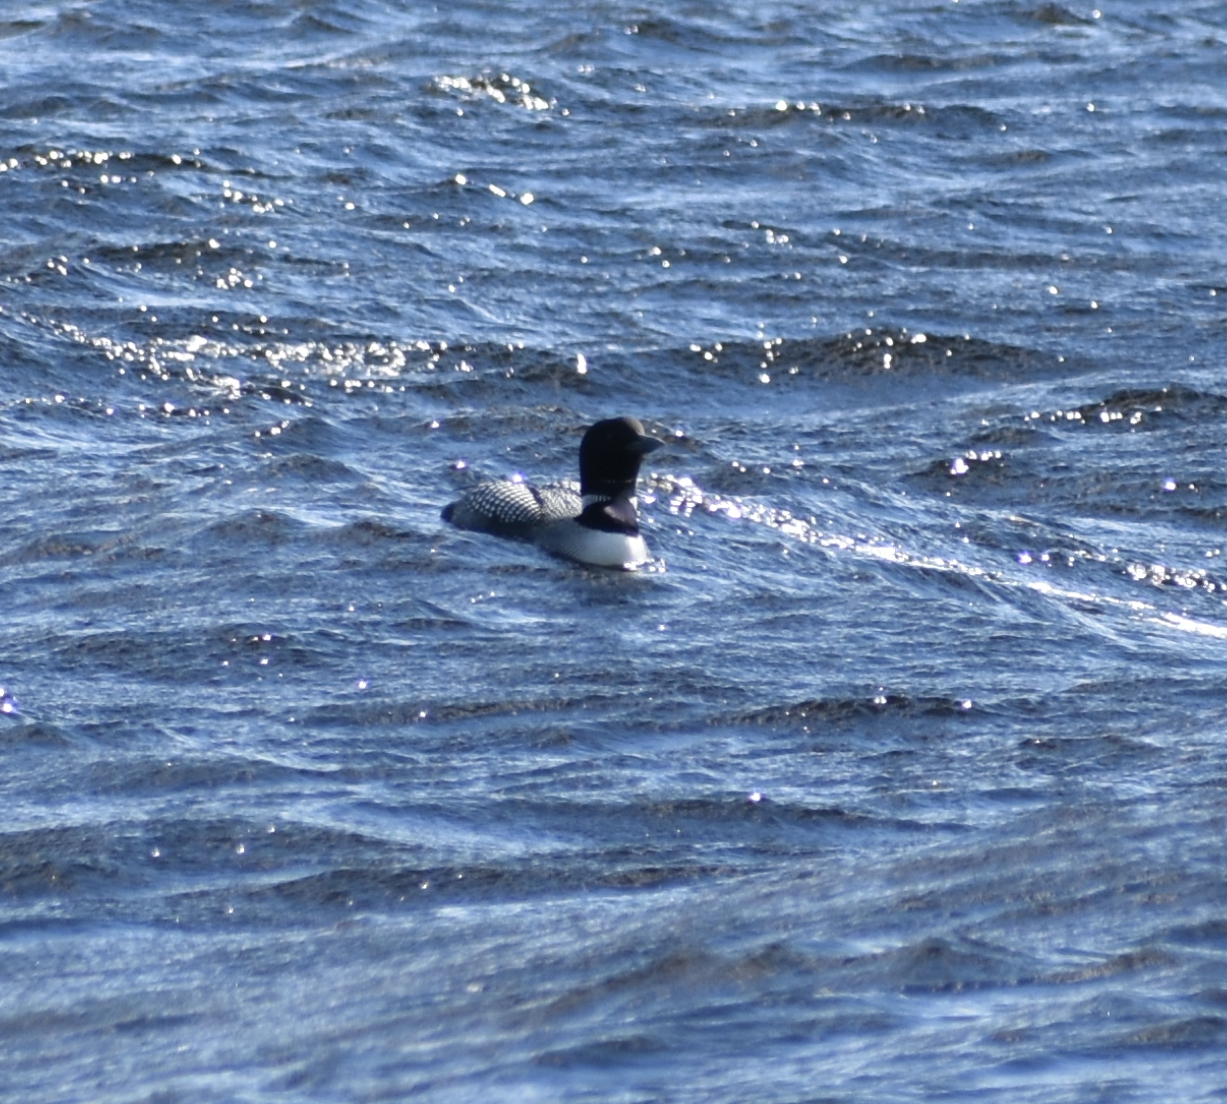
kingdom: Animalia
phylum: Chordata
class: Aves
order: Gaviiformes
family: Gaviidae
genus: Gavia
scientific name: Gavia immer
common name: Common loon
